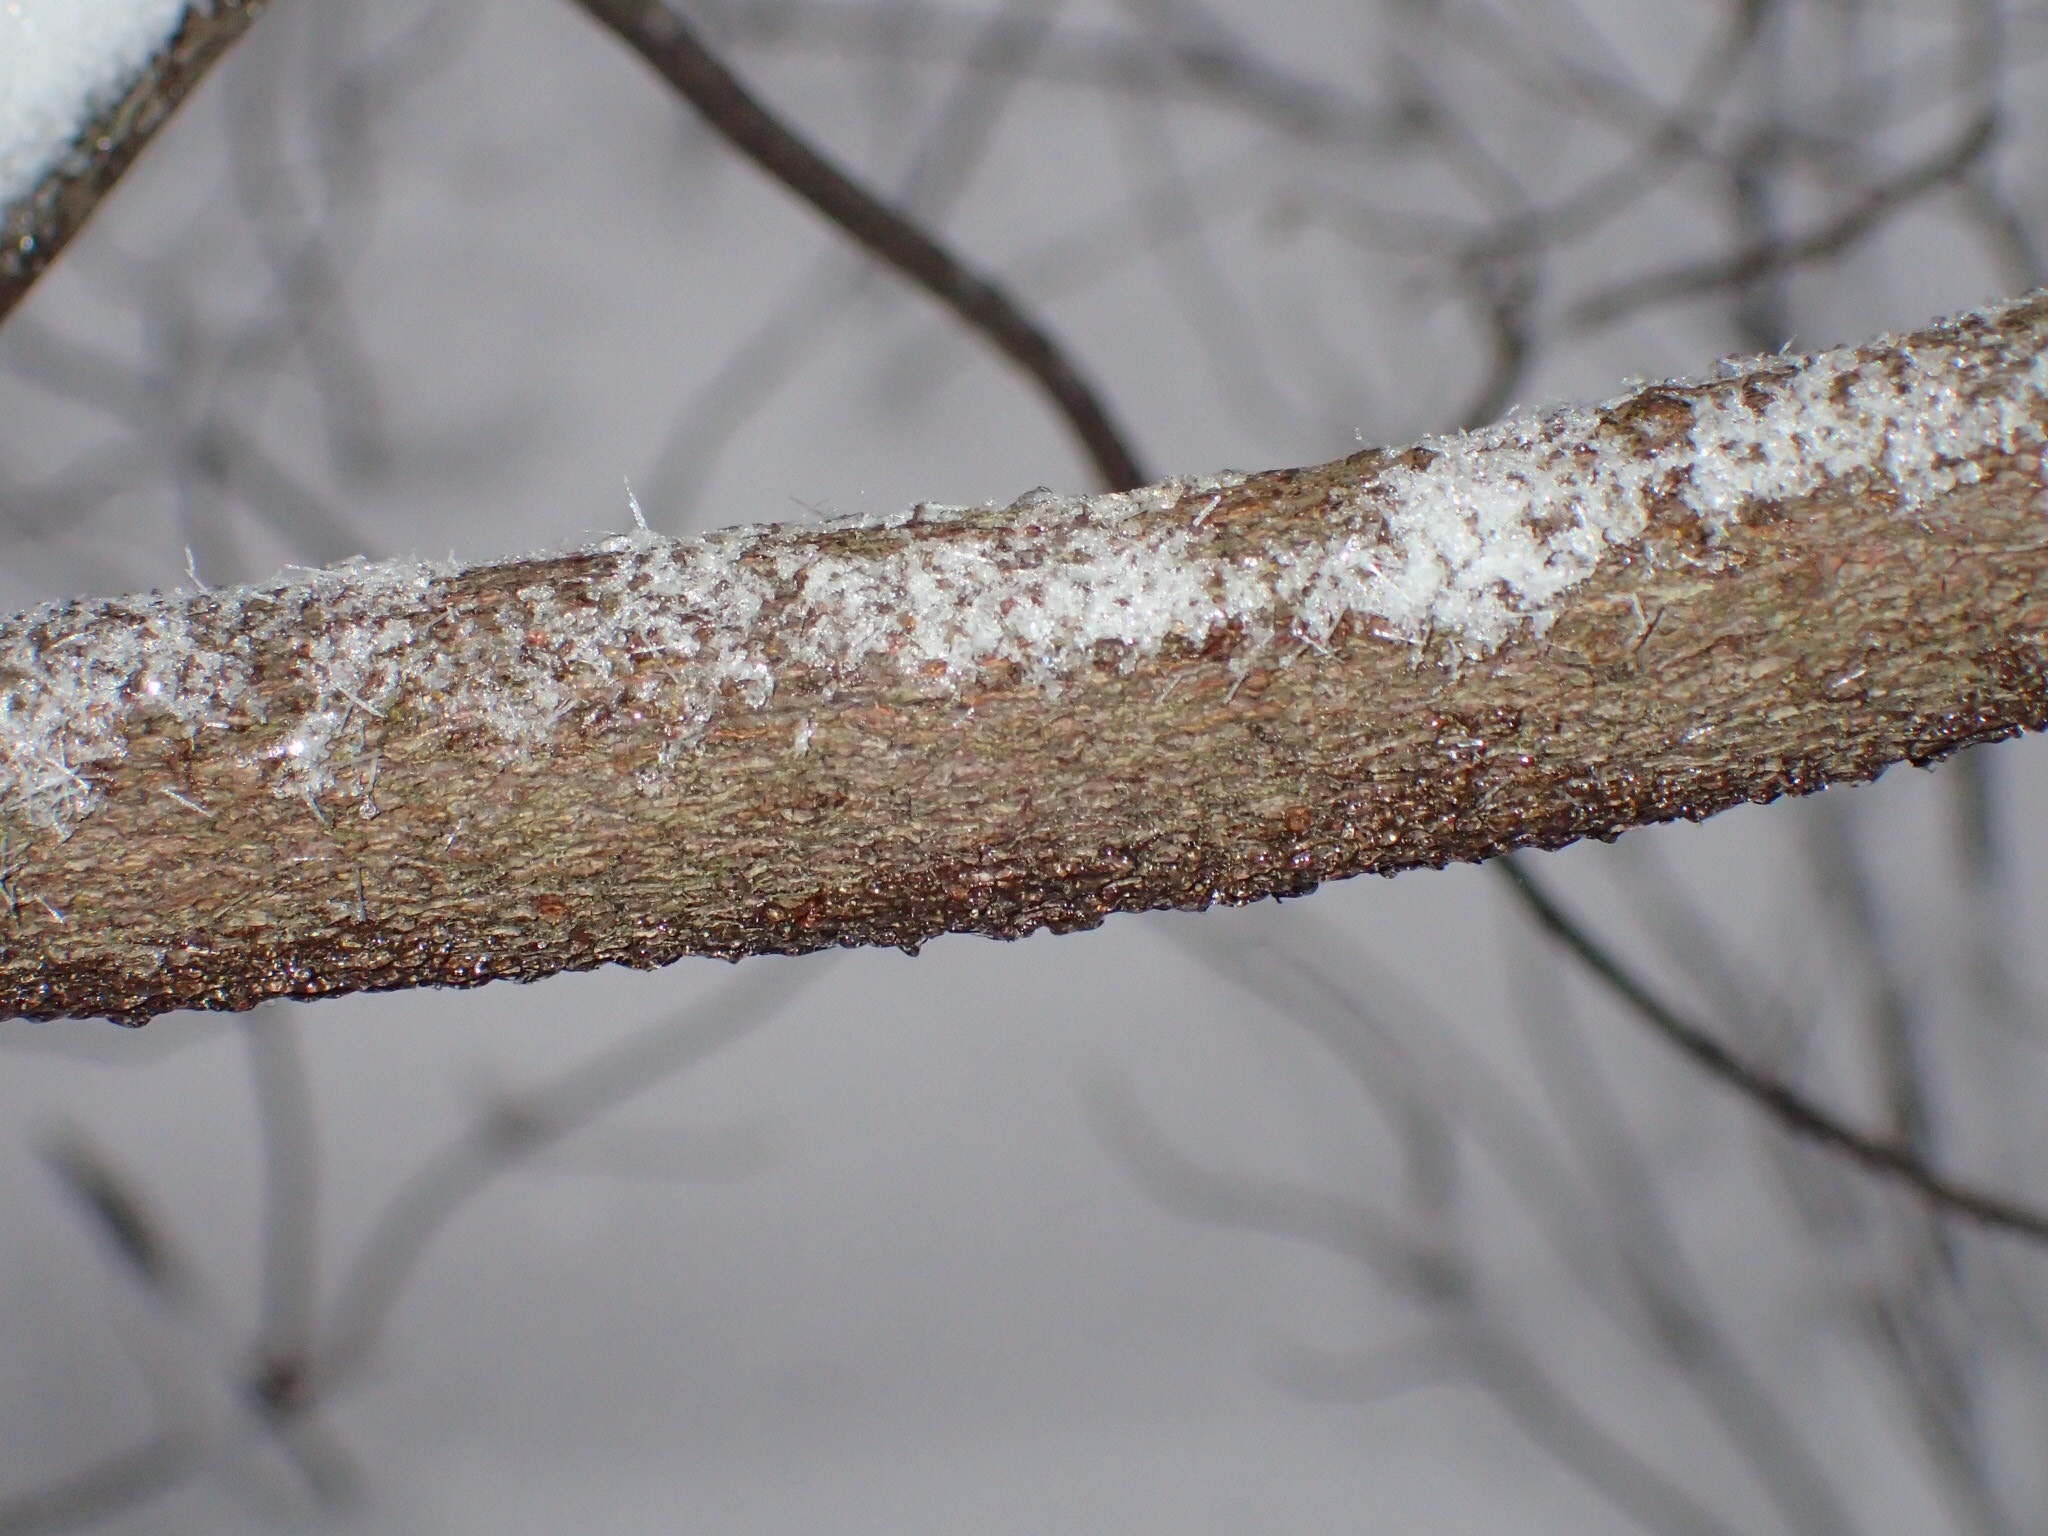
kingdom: Plantae
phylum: Tracheophyta
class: Magnoliopsida
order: Ericales
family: Clethraceae
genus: Clethra
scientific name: Clethra alnifolia
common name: Sweet pepperbush
